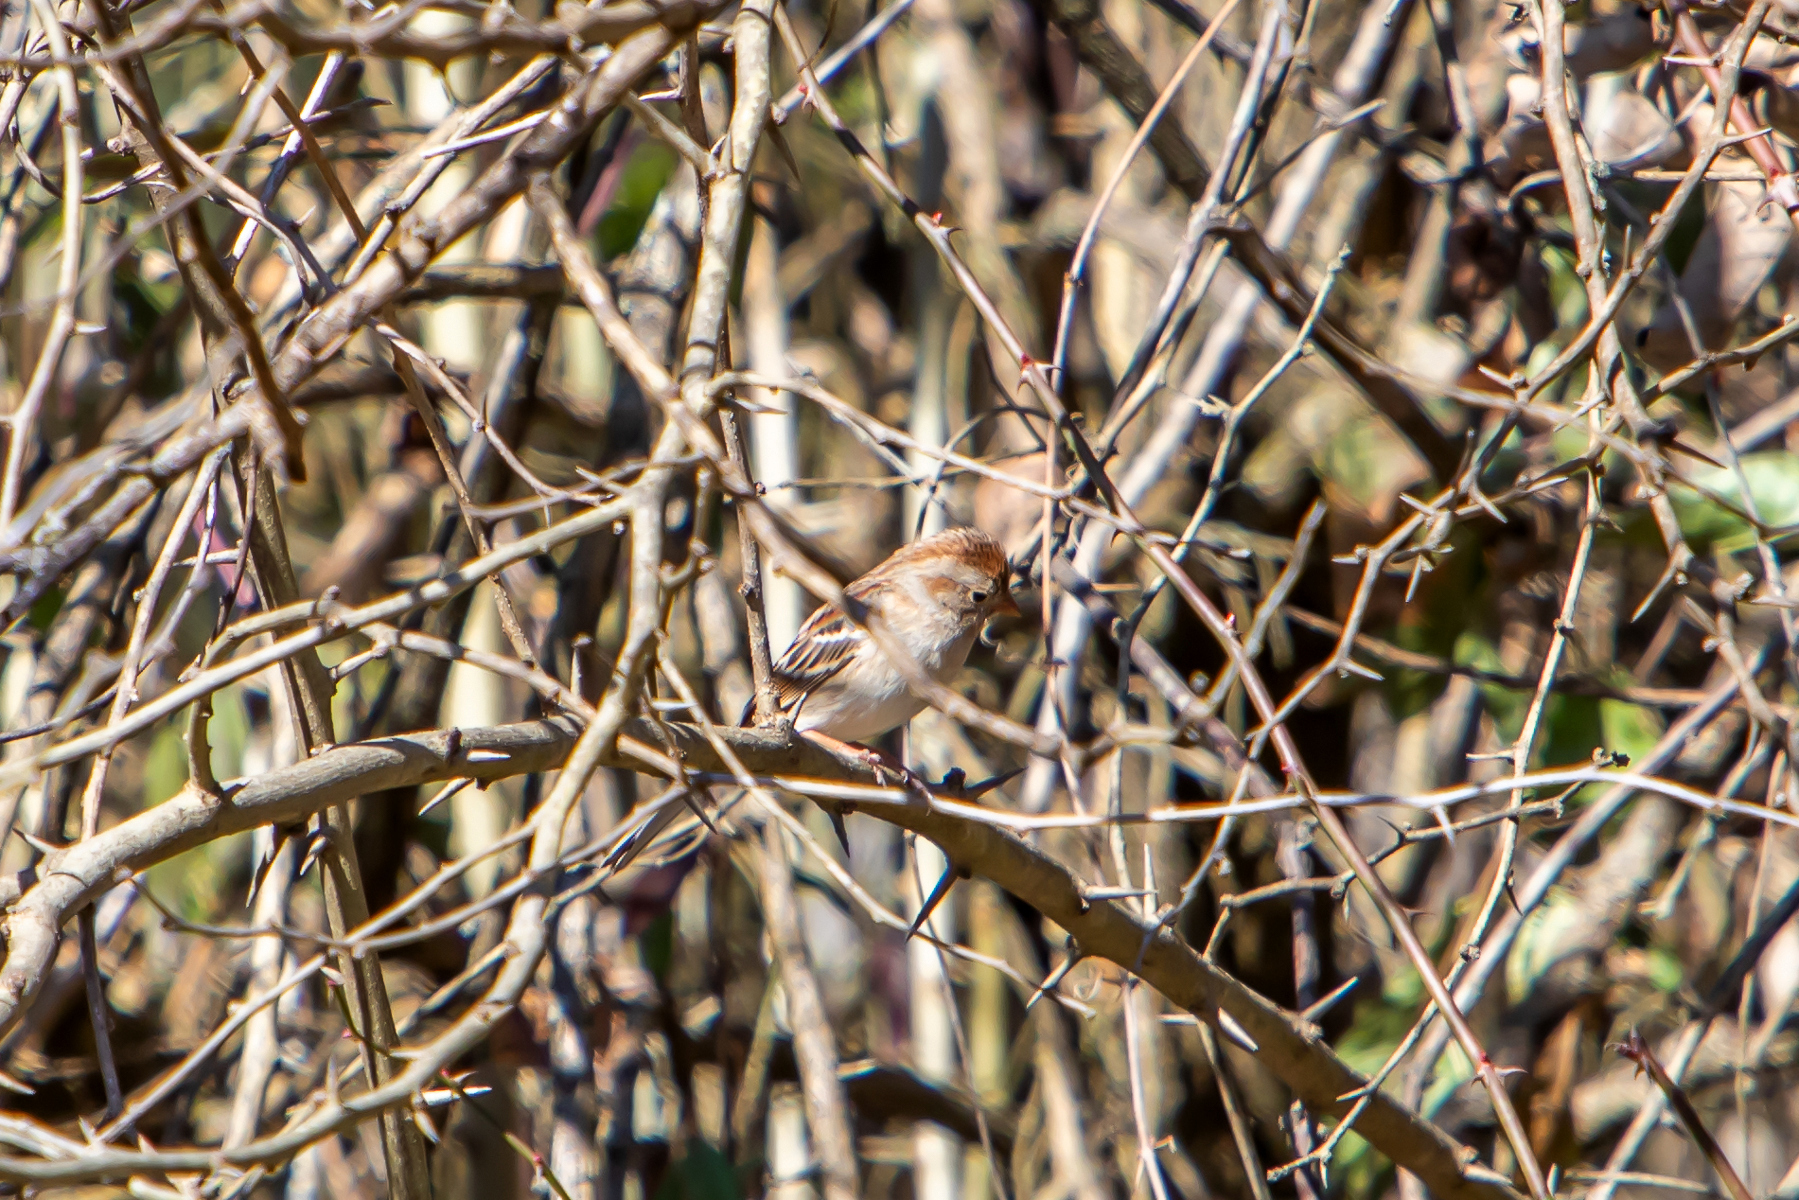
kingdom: Animalia
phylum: Chordata
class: Aves
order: Passeriformes
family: Passerellidae
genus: Spizella
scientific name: Spizella pusilla
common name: Field sparrow
